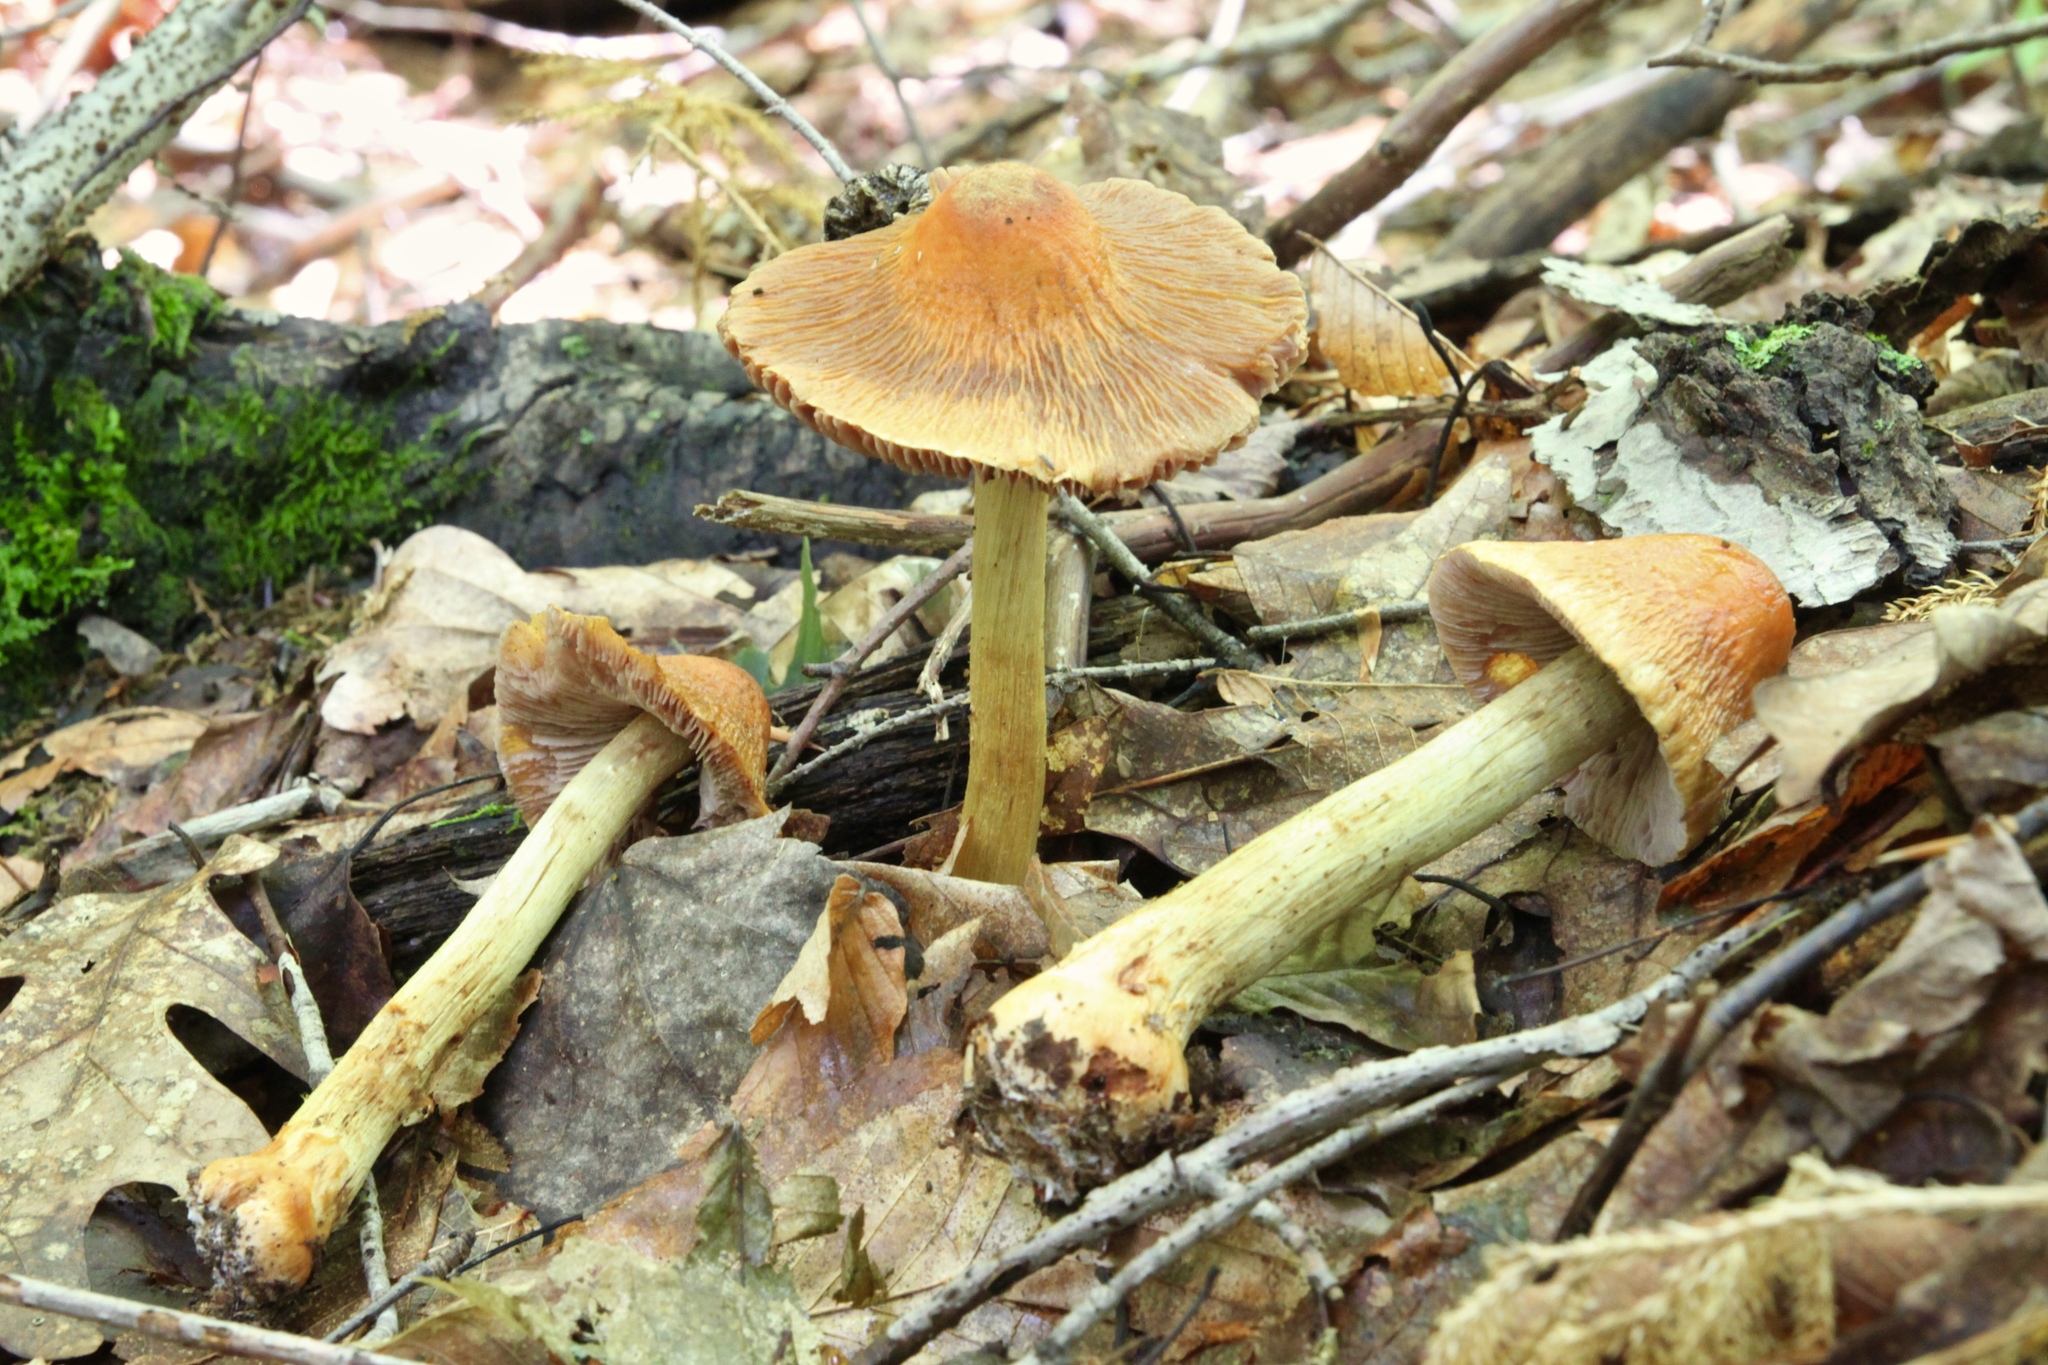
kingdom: Fungi
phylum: Basidiomycota
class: Agaricomycetes
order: Agaricales
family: Cortinariaceae
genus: Cortinarius
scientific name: Cortinarius corrugatus
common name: Wrinkled cortinarius
